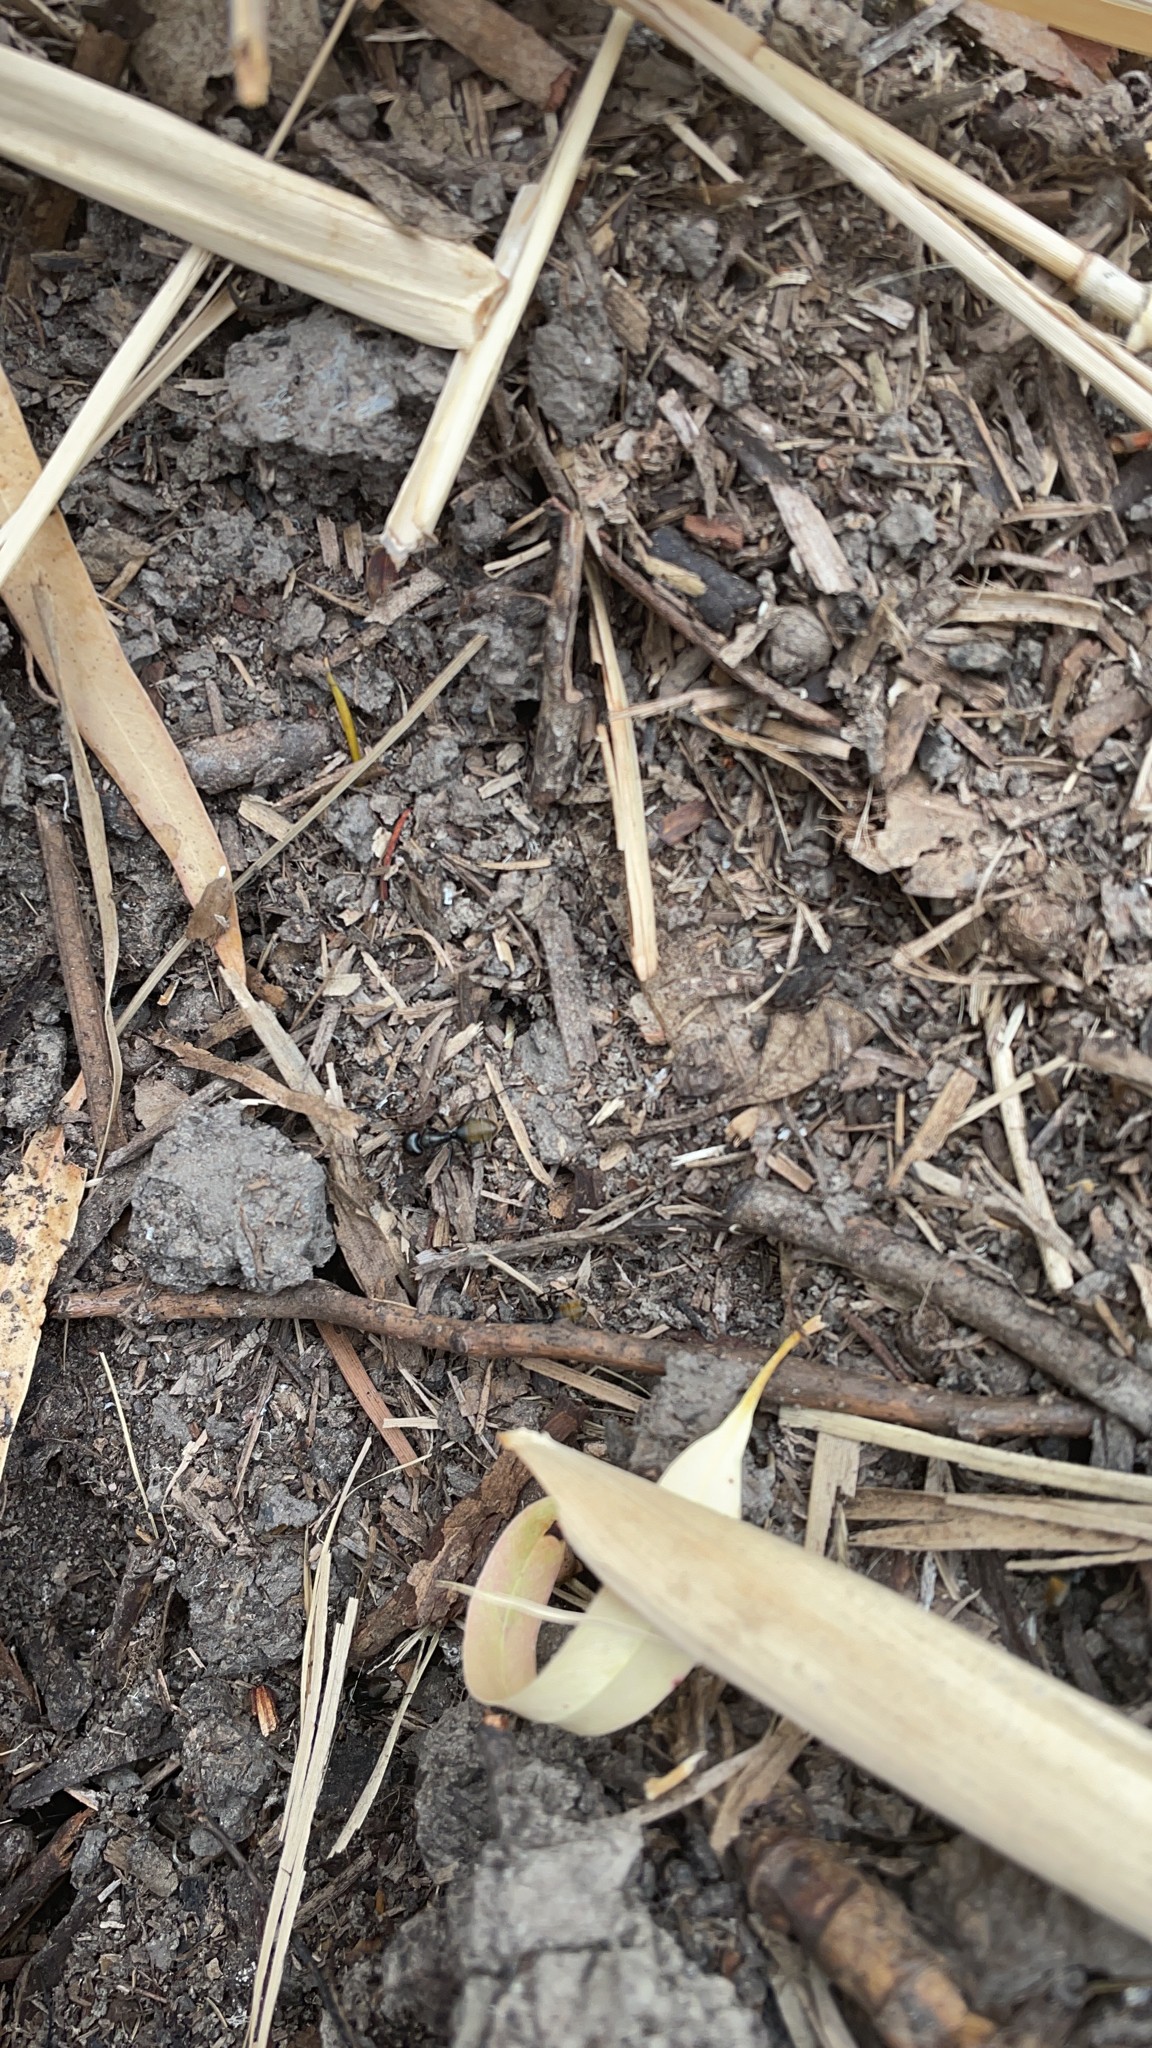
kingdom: Animalia
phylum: Arthropoda
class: Insecta
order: Hymenoptera
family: Formicidae
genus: Camponotus
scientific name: Camponotus aeneopilosus
